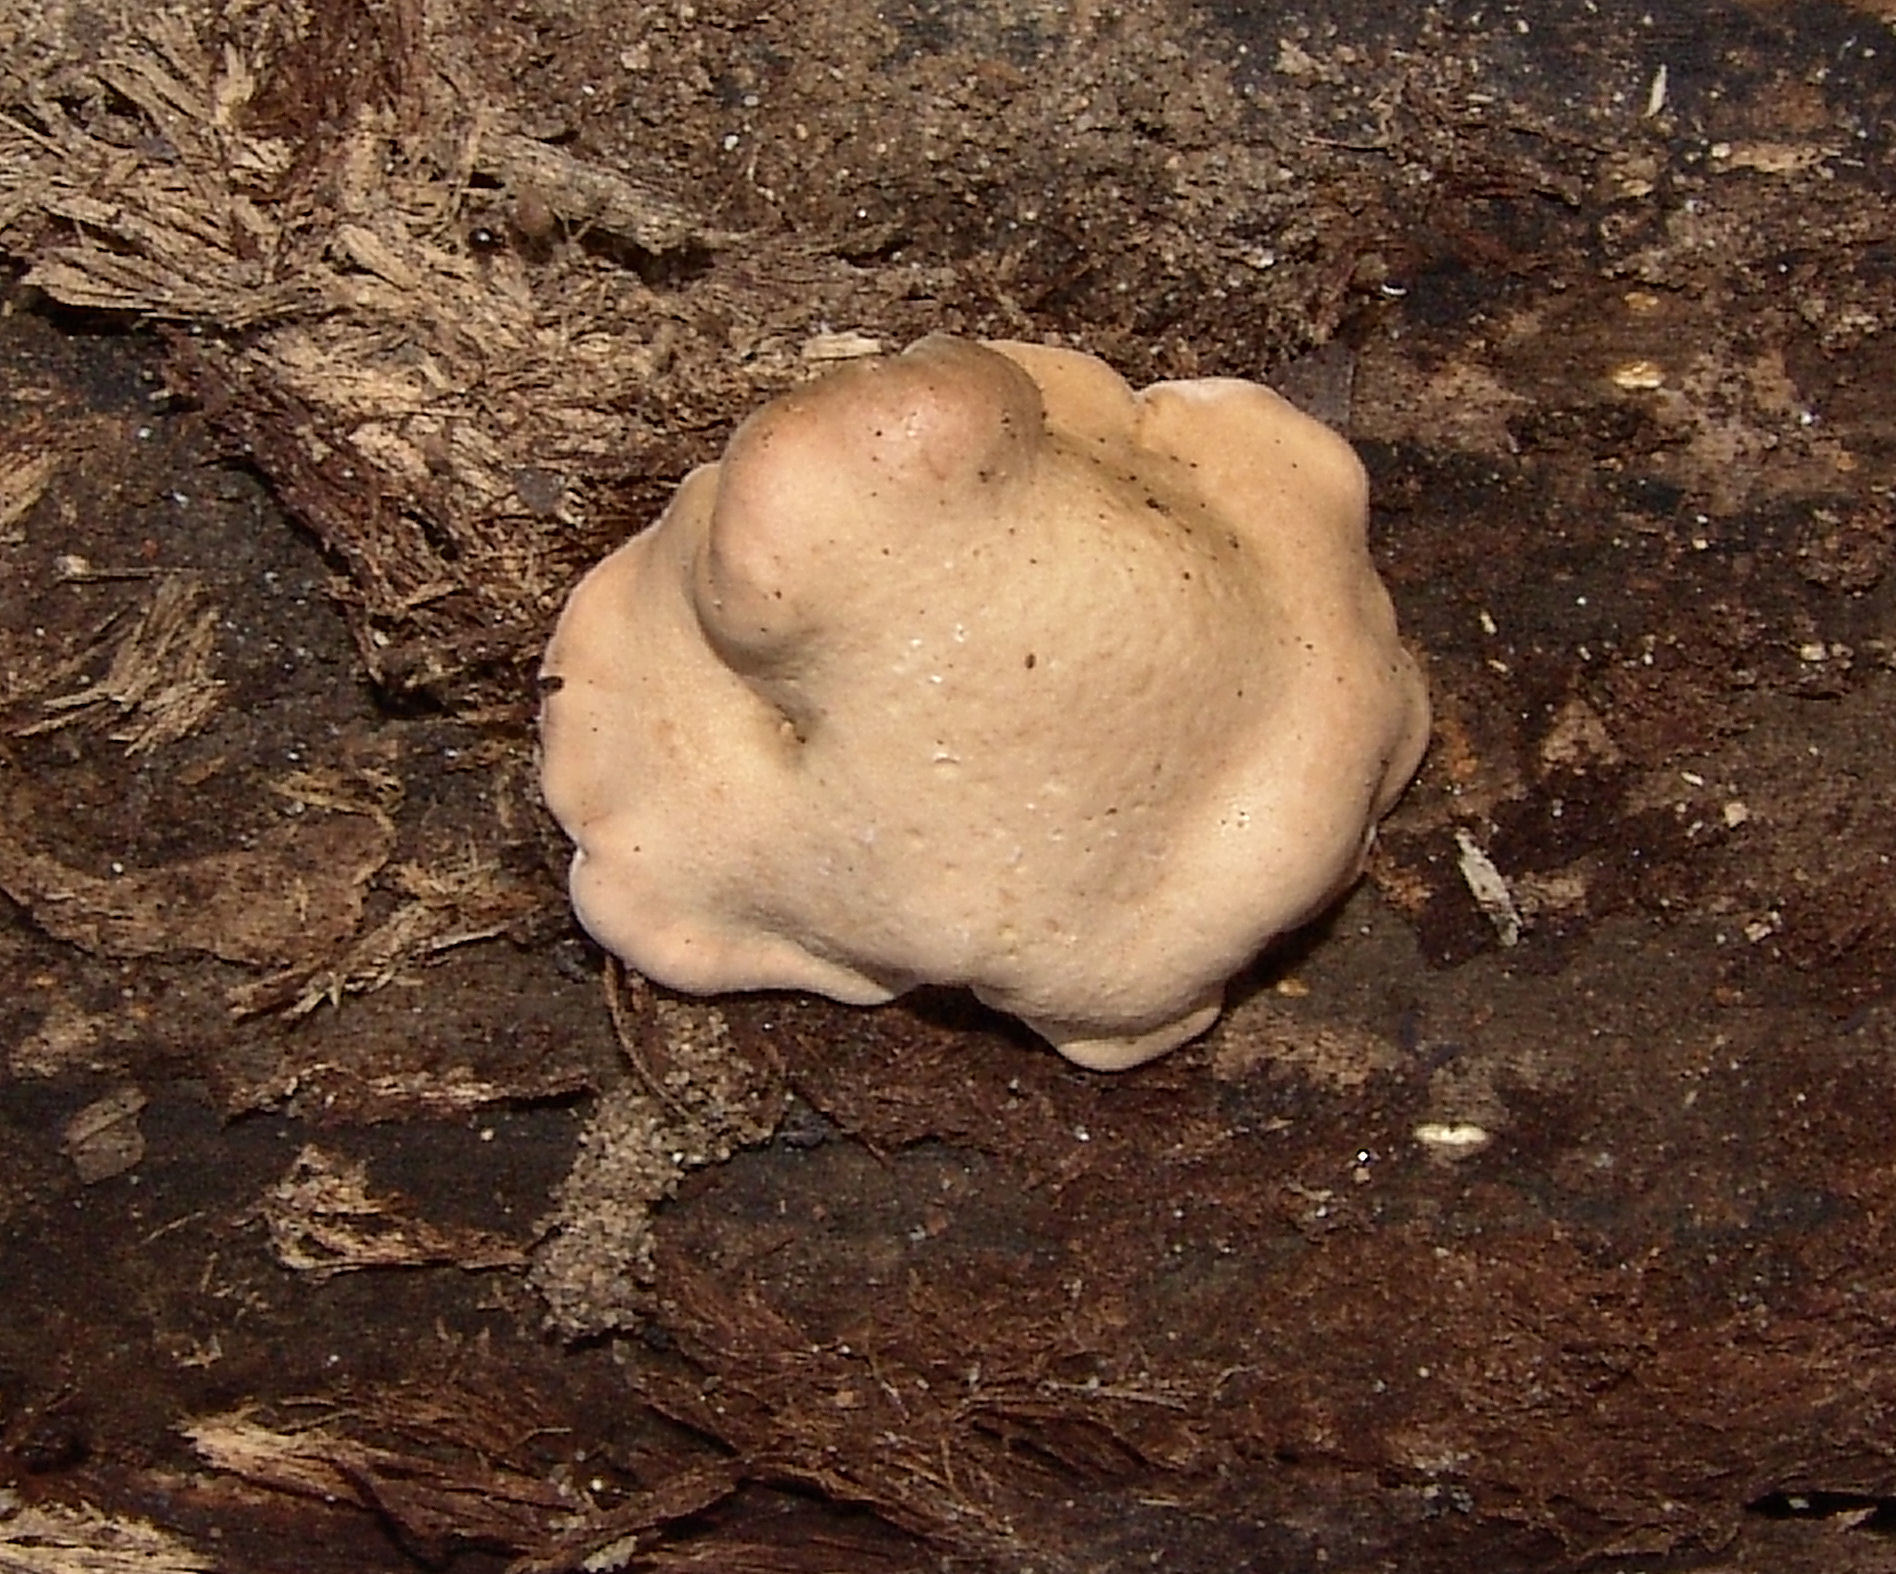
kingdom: Fungi
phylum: Ascomycota
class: Sordariomycetes
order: Hypocreales
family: Hypocreaceae
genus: Trichoderma
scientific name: Trichoderma peltatum
